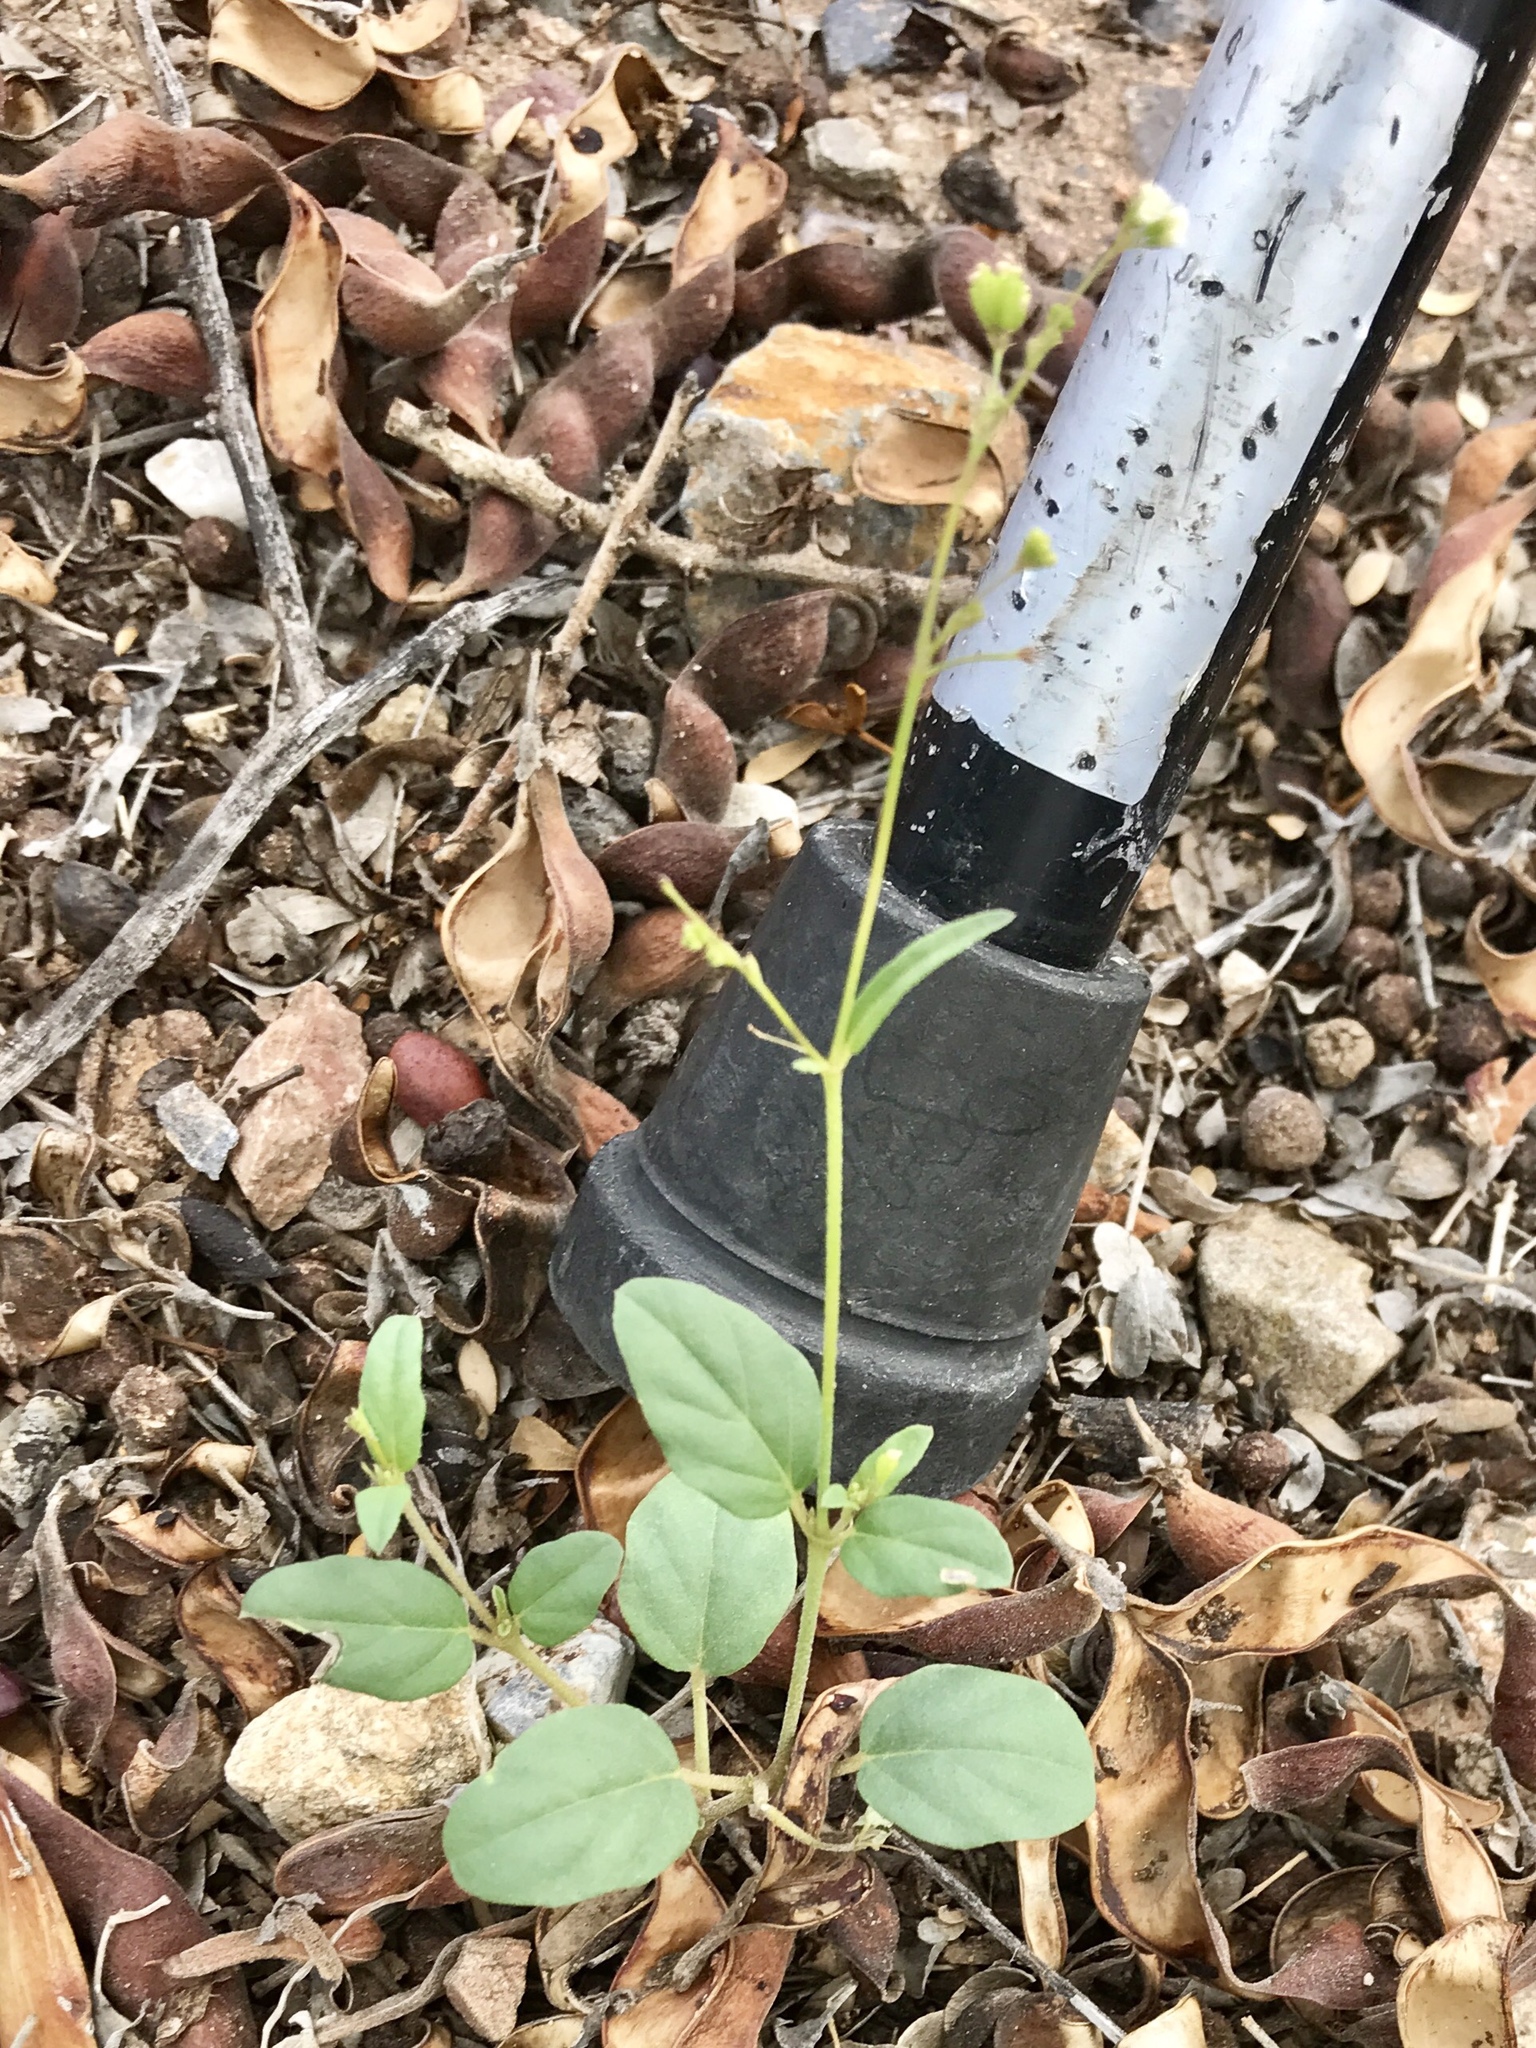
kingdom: Plantae
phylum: Tracheophyta
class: Magnoliopsida
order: Caryophyllales
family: Nyctaginaceae
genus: Boerhavia
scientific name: Boerhavia erecta
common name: Erect spiderling
